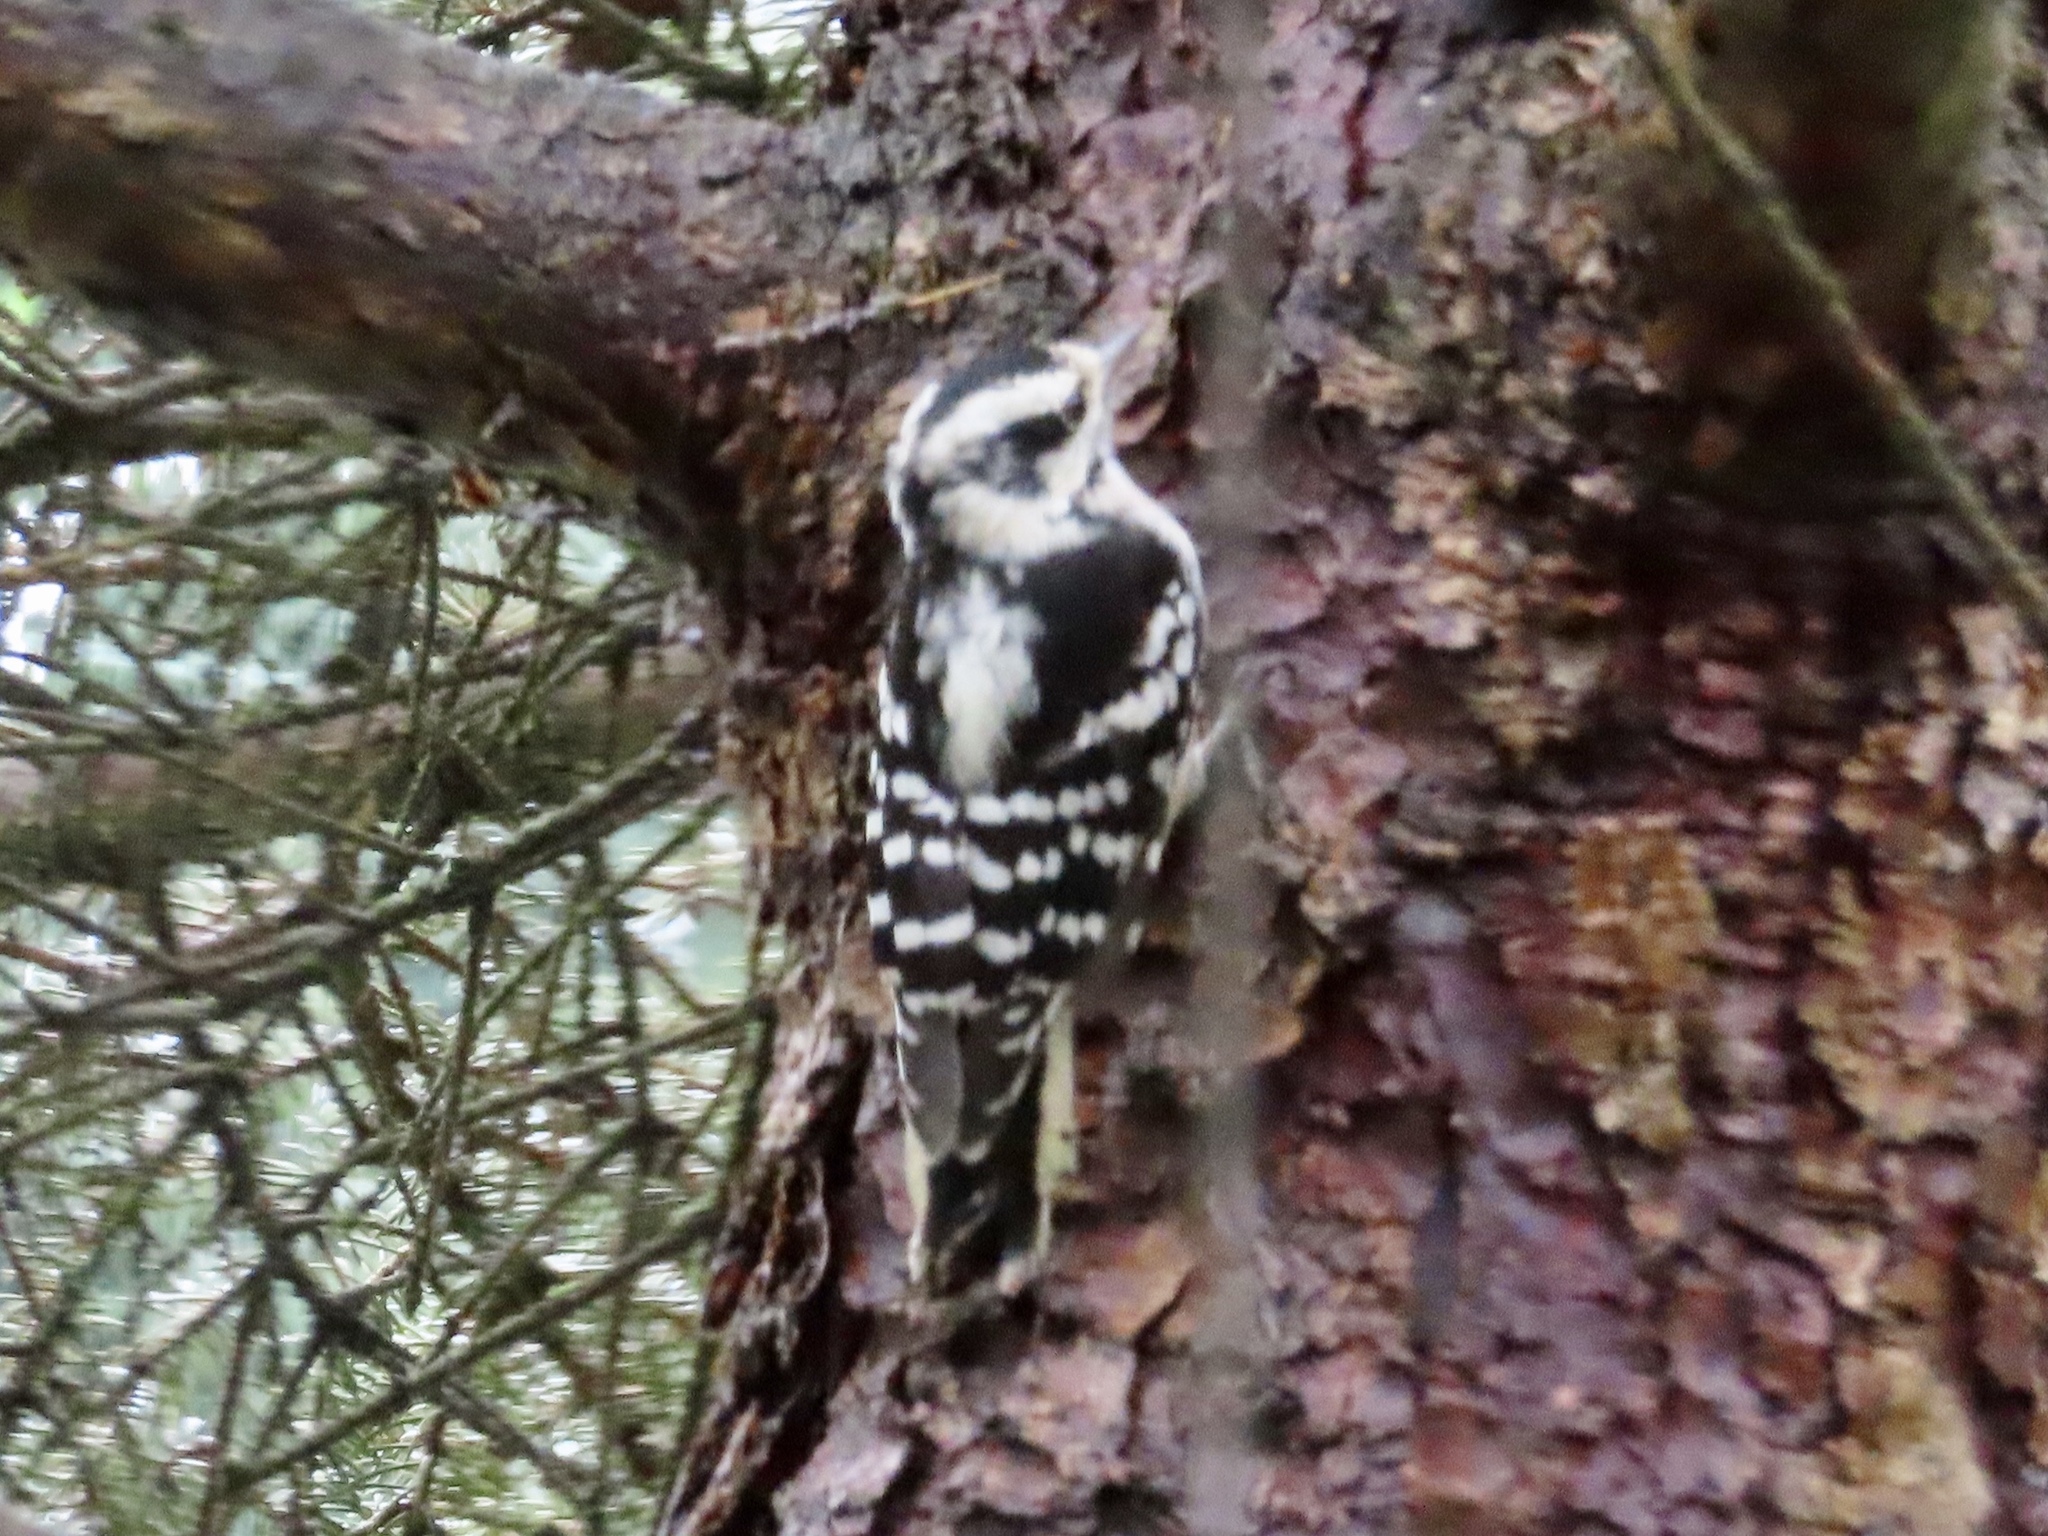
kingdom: Animalia
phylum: Chordata
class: Aves
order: Piciformes
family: Picidae
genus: Dryobates
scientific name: Dryobates pubescens
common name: Downy woodpecker
